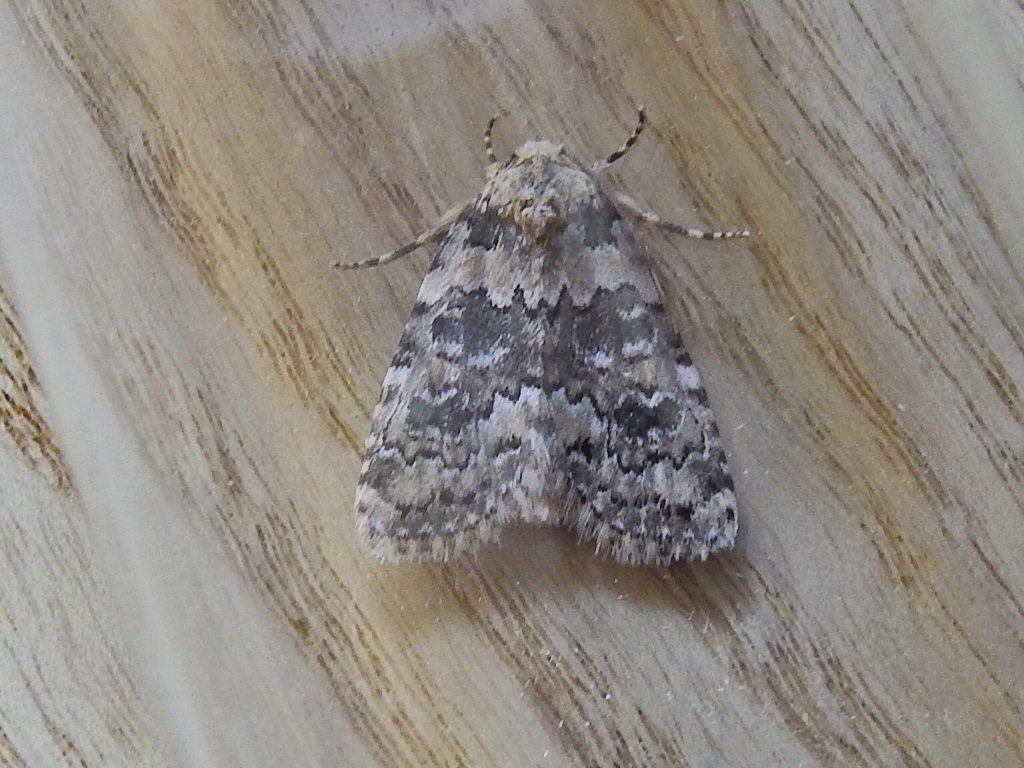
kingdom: Animalia
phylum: Arthropoda
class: Insecta
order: Lepidoptera
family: Noctuidae
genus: Bryophila
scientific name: Bryophila domestica
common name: Marbled beauty
